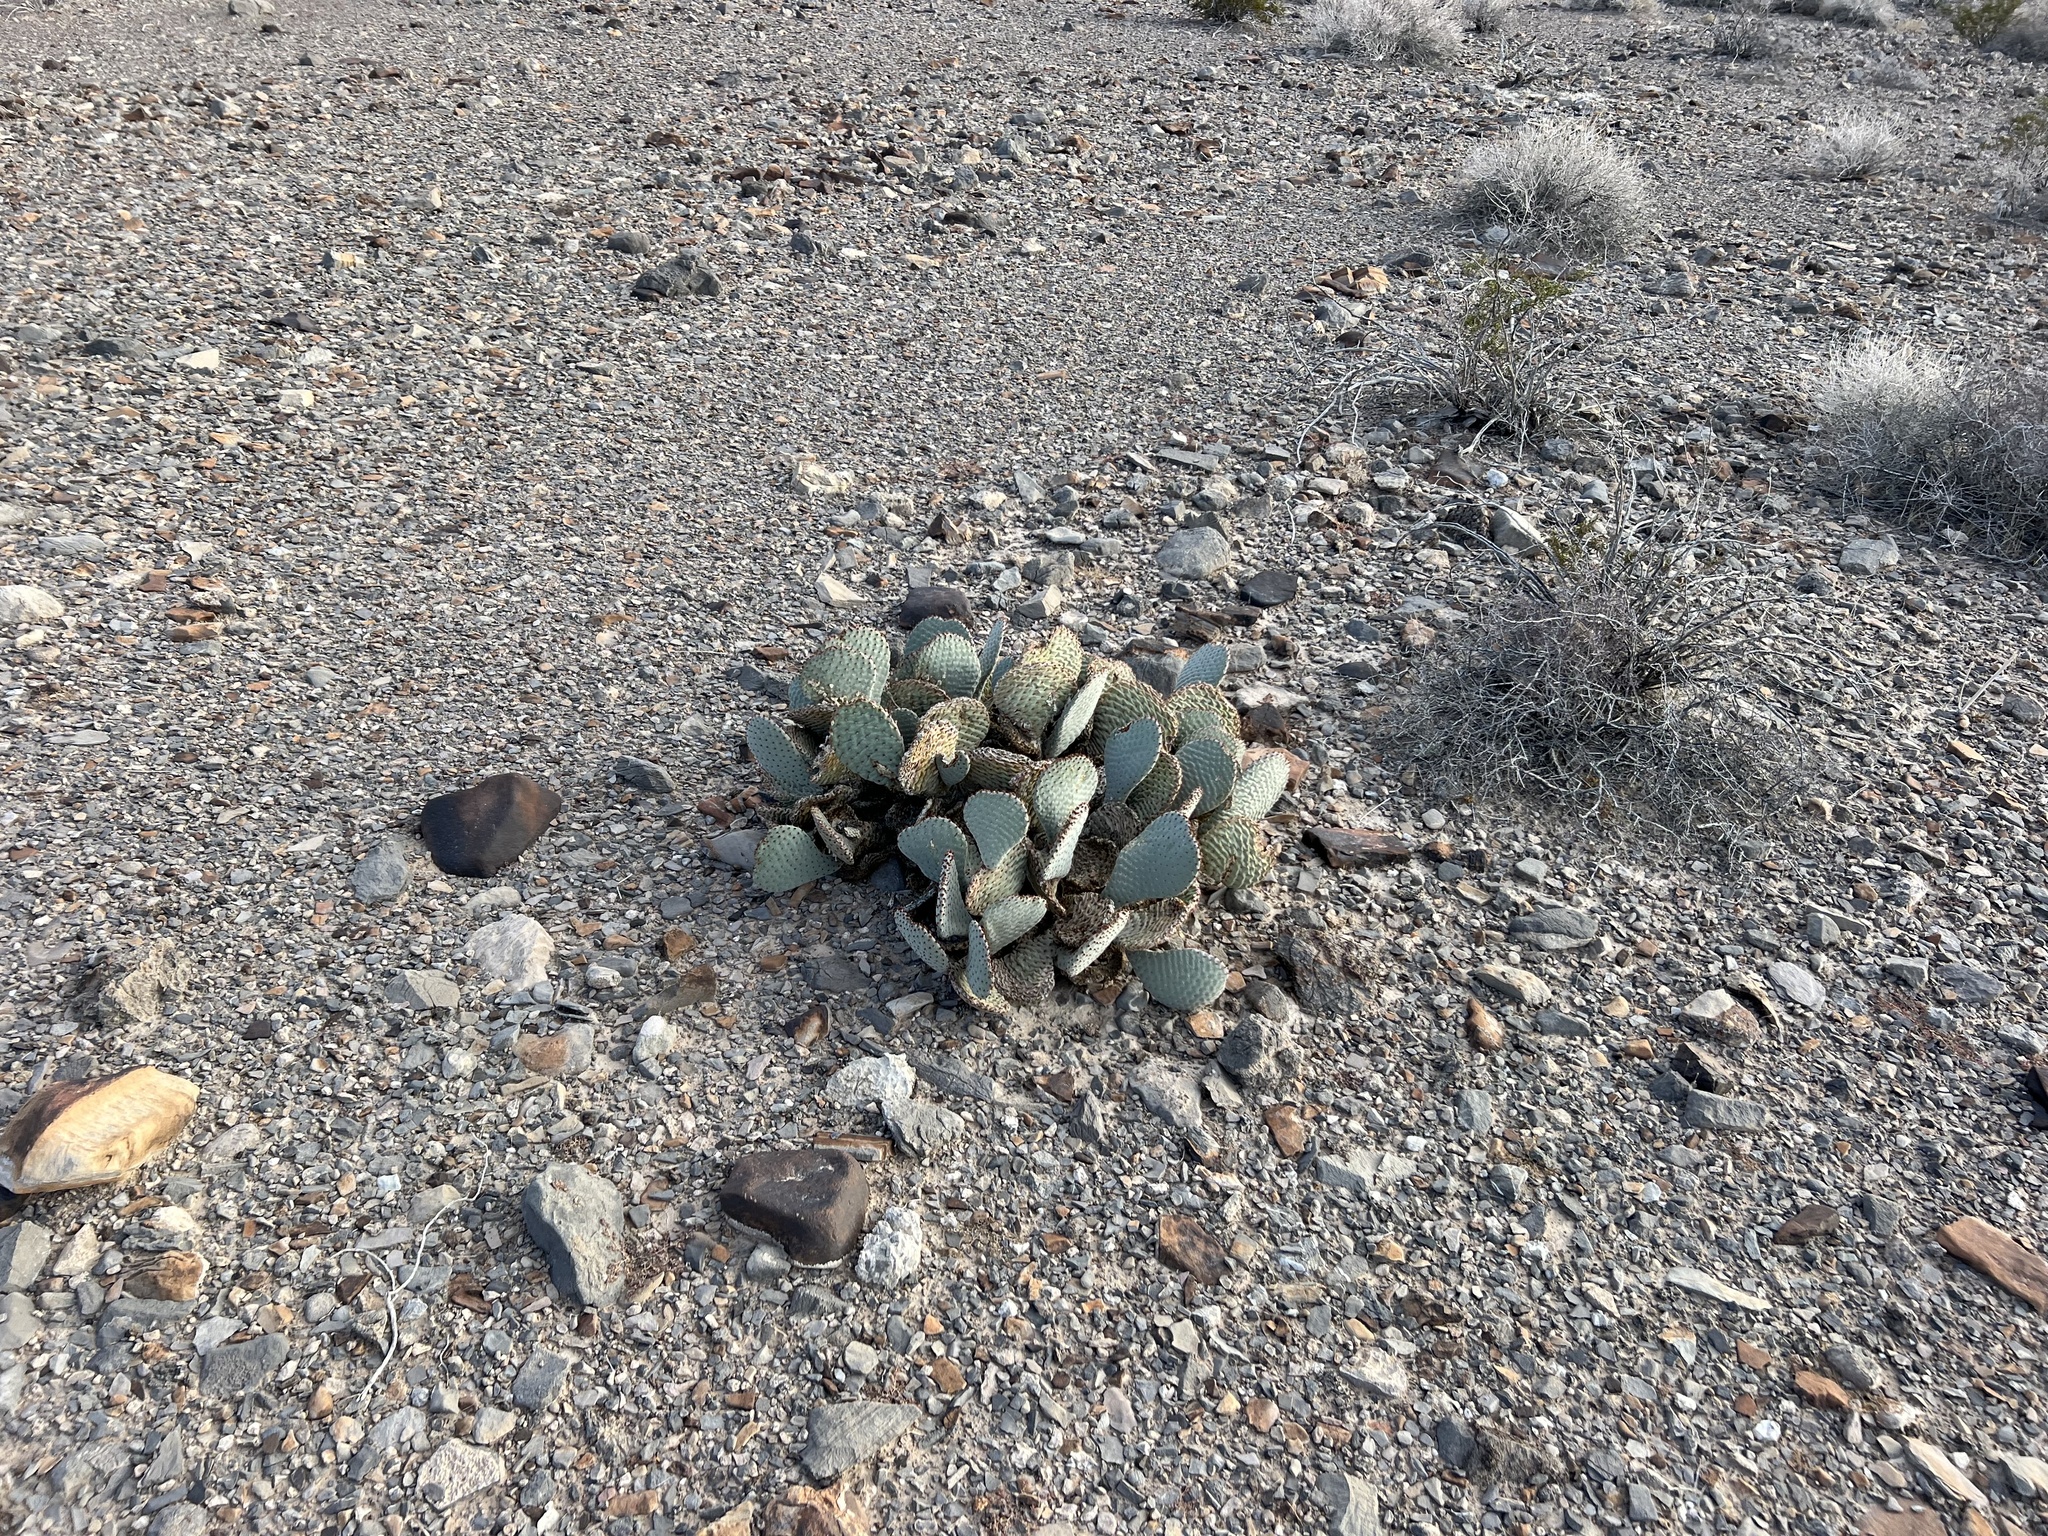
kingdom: Plantae
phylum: Tracheophyta
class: Magnoliopsida
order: Caryophyllales
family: Cactaceae
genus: Opuntia
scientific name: Opuntia basilaris
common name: Beavertail prickly-pear
